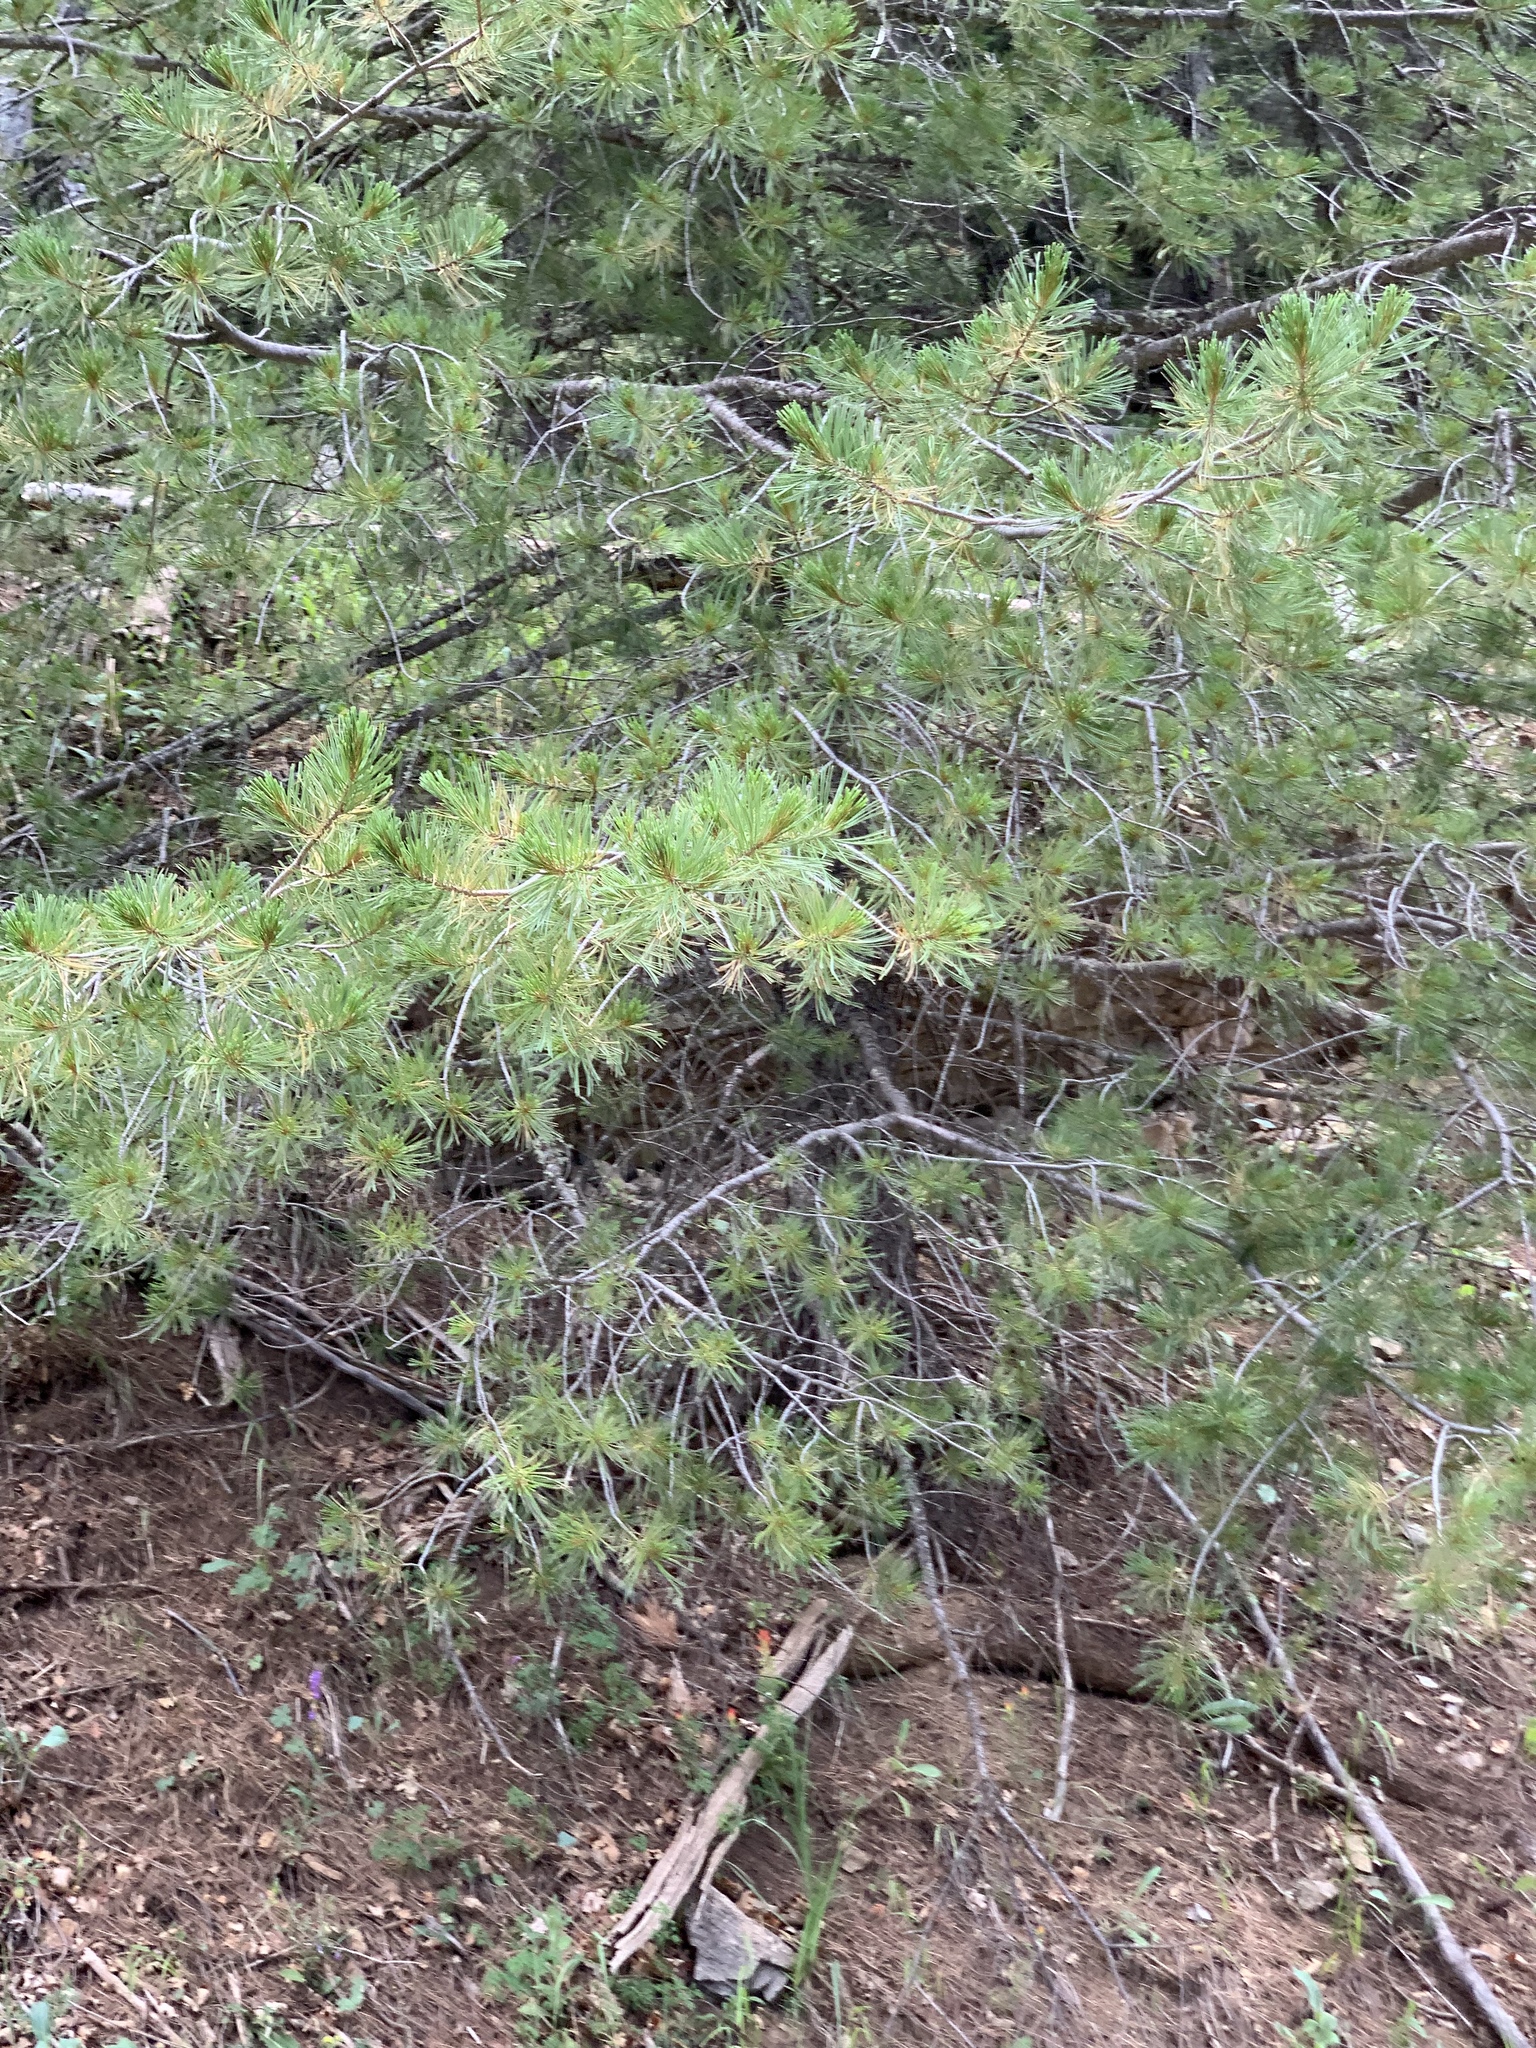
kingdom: Plantae
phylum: Tracheophyta
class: Pinopsida
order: Pinales
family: Pinaceae
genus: Pinus
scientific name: Pinus strobiformis
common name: Southwestern white pine
